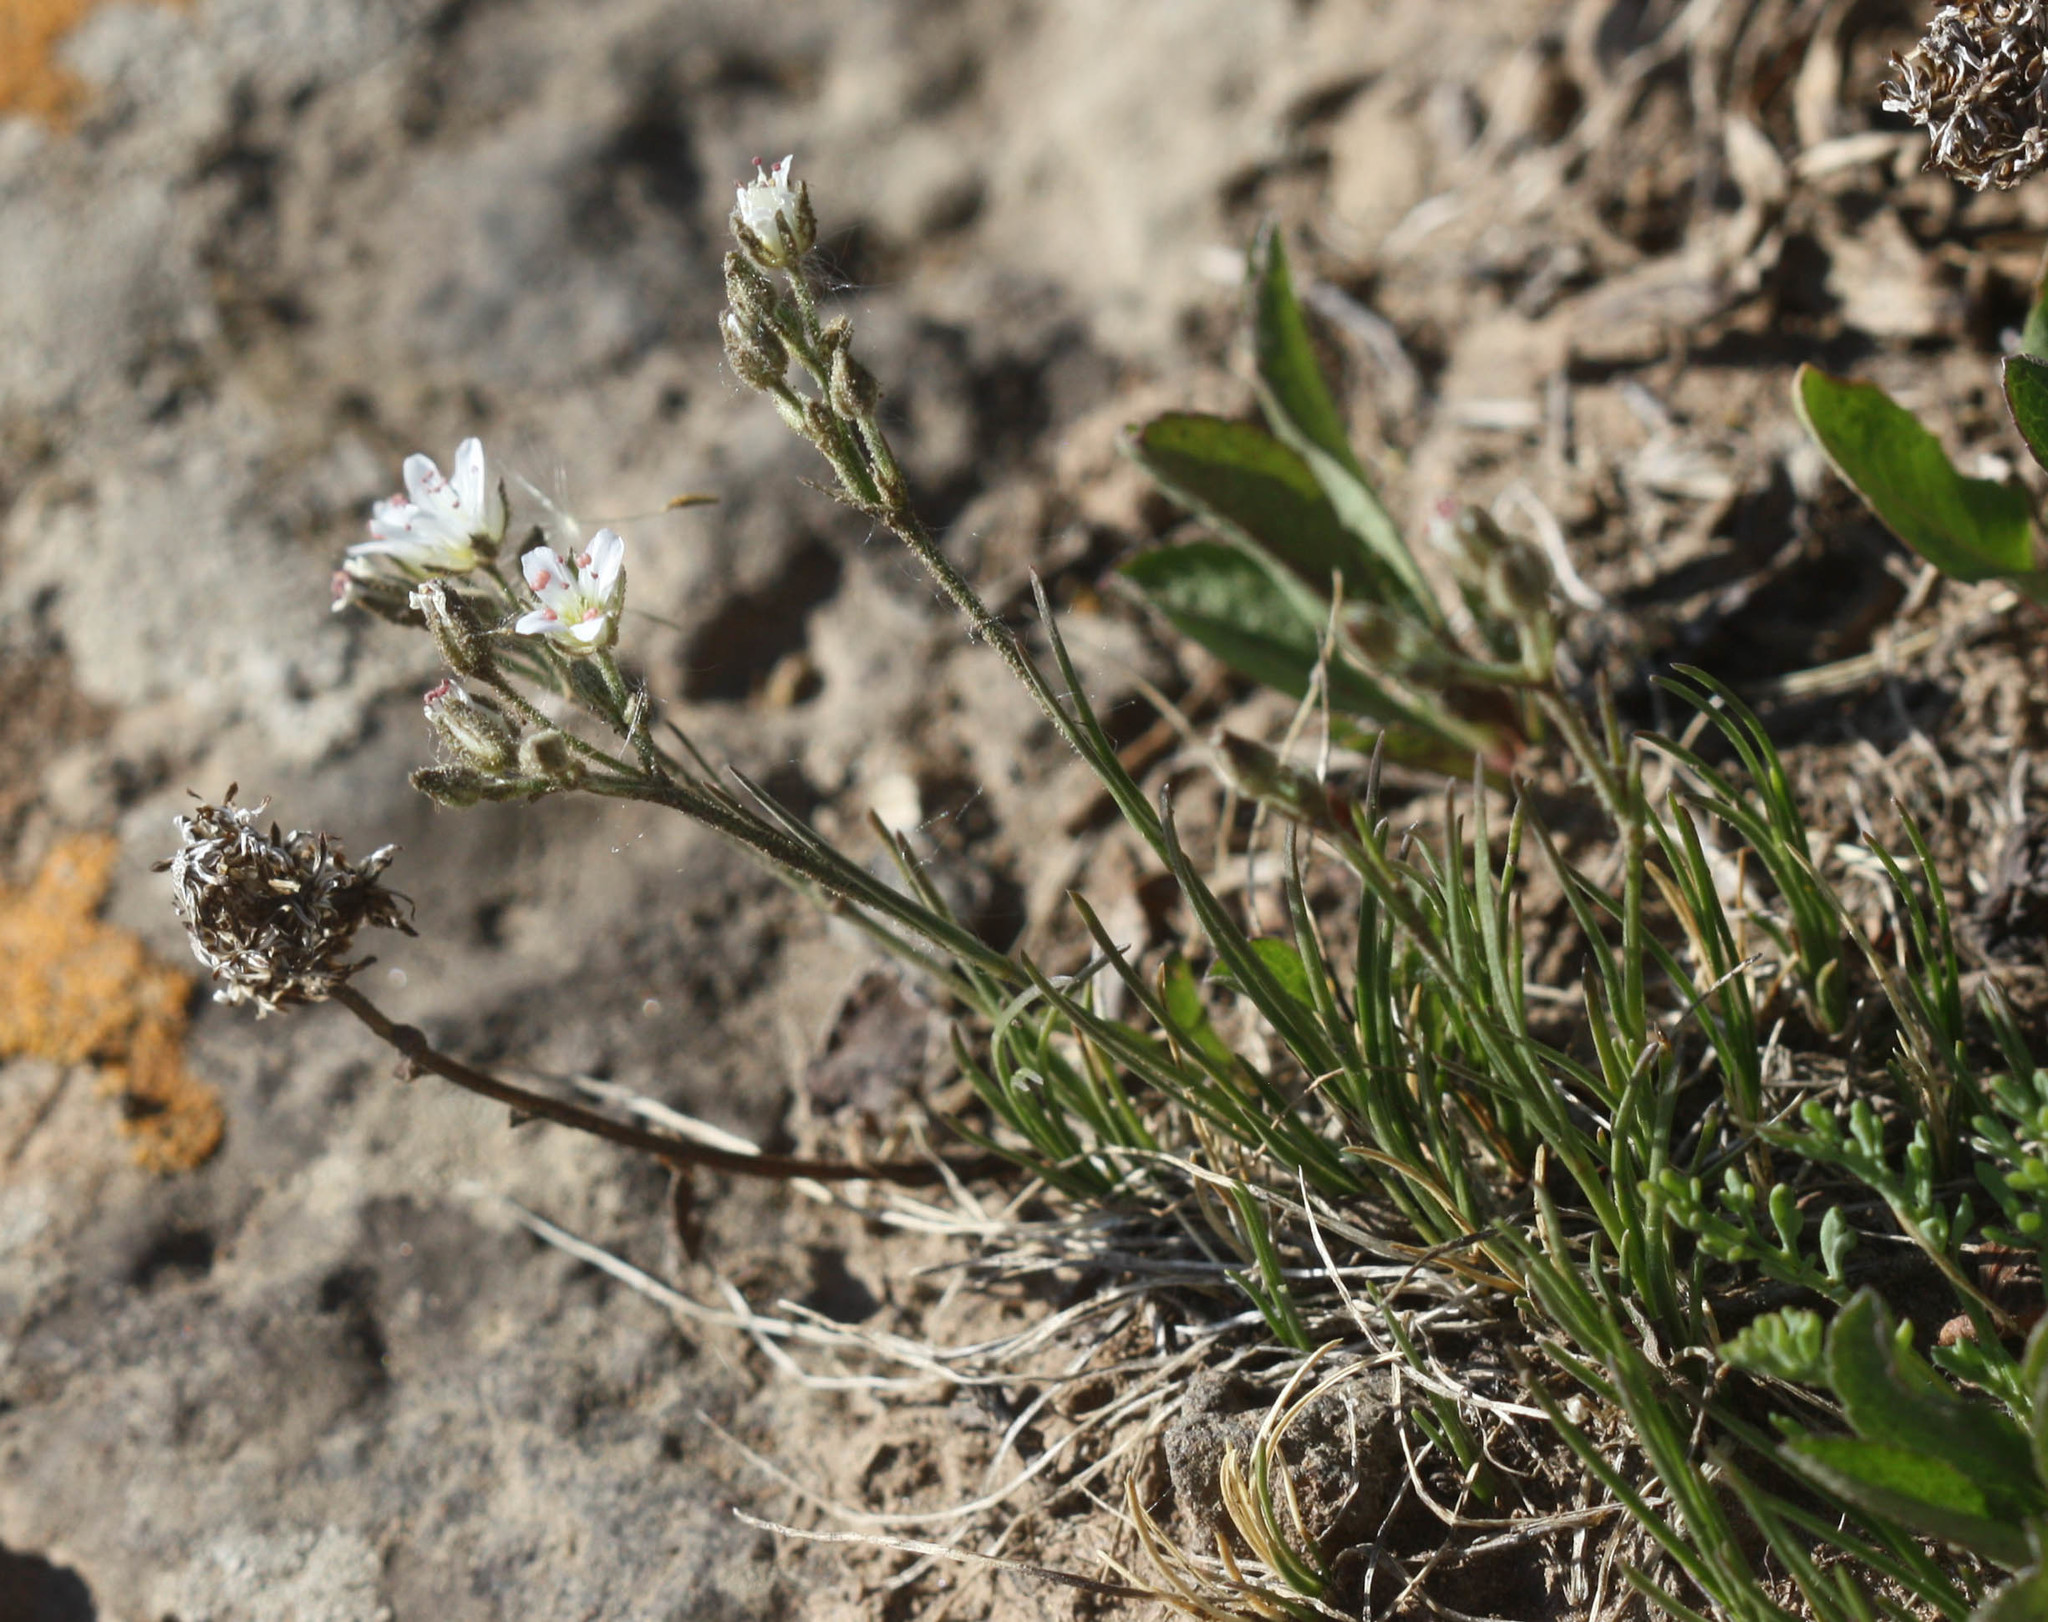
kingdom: Plantae
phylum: Tracheophyta
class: Magnoliopsida
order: Caryophyllales
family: Caryophyllaceae
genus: Eremogone
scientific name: Eremogone fendleri
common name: Fendler's sandwort
